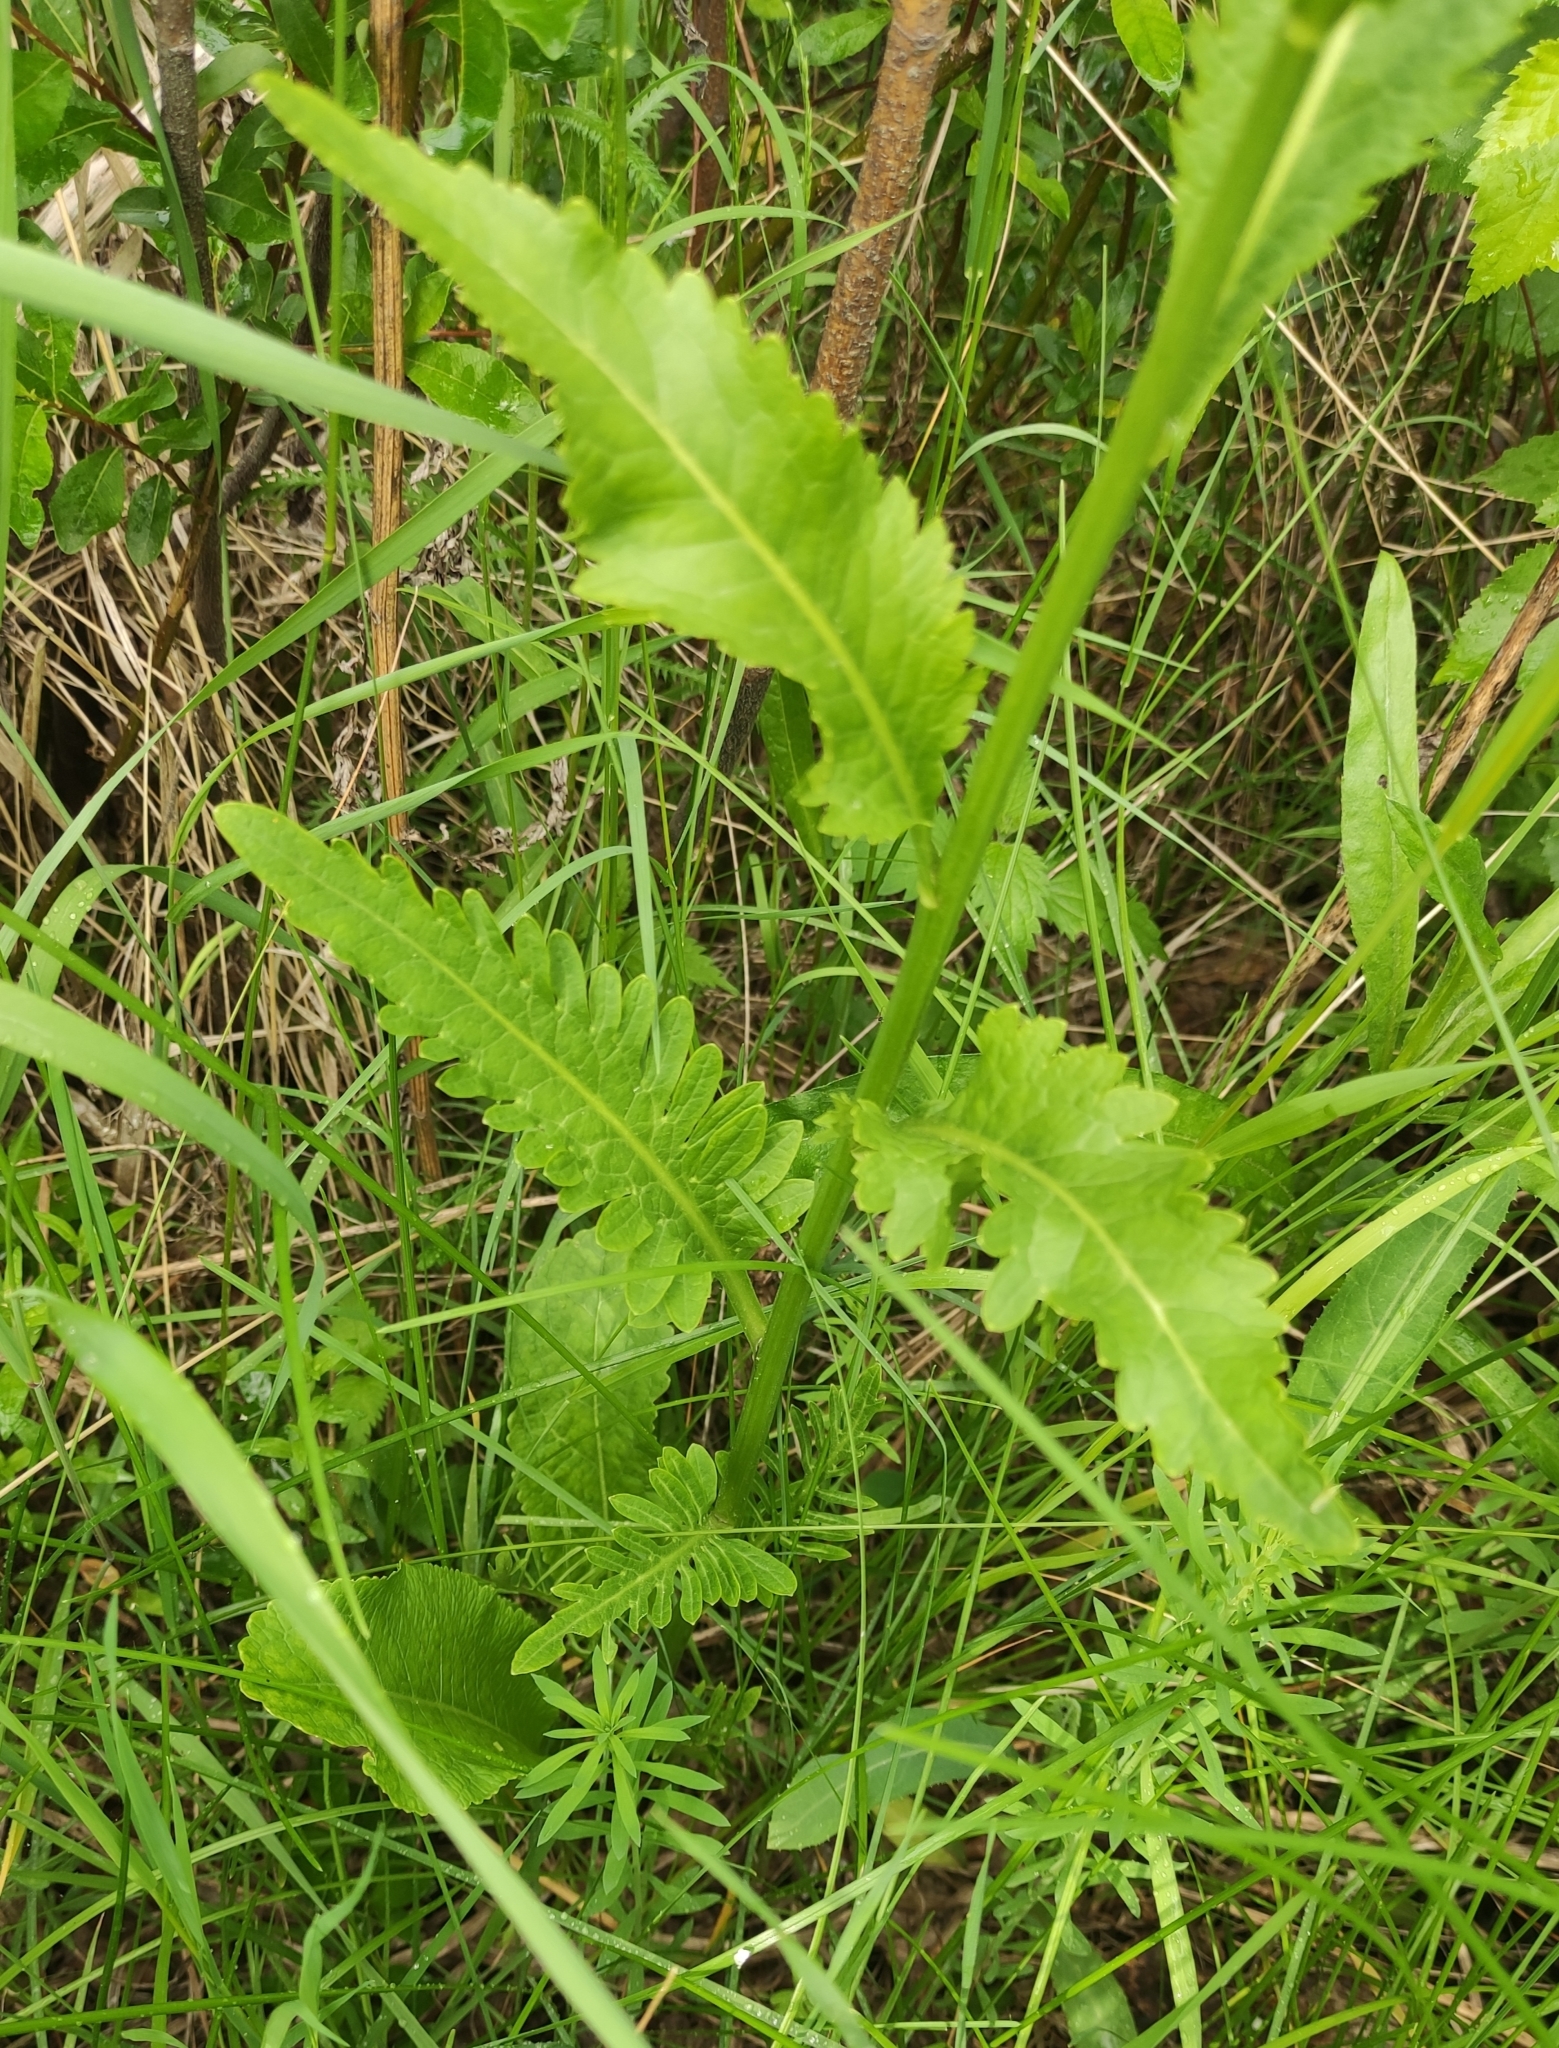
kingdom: Plantae
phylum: Tracheophyta
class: Magnoliopsida
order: Brassicales
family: Brassicaceae
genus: Armoracia
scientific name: Armoracia rusticana
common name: Horseradish
